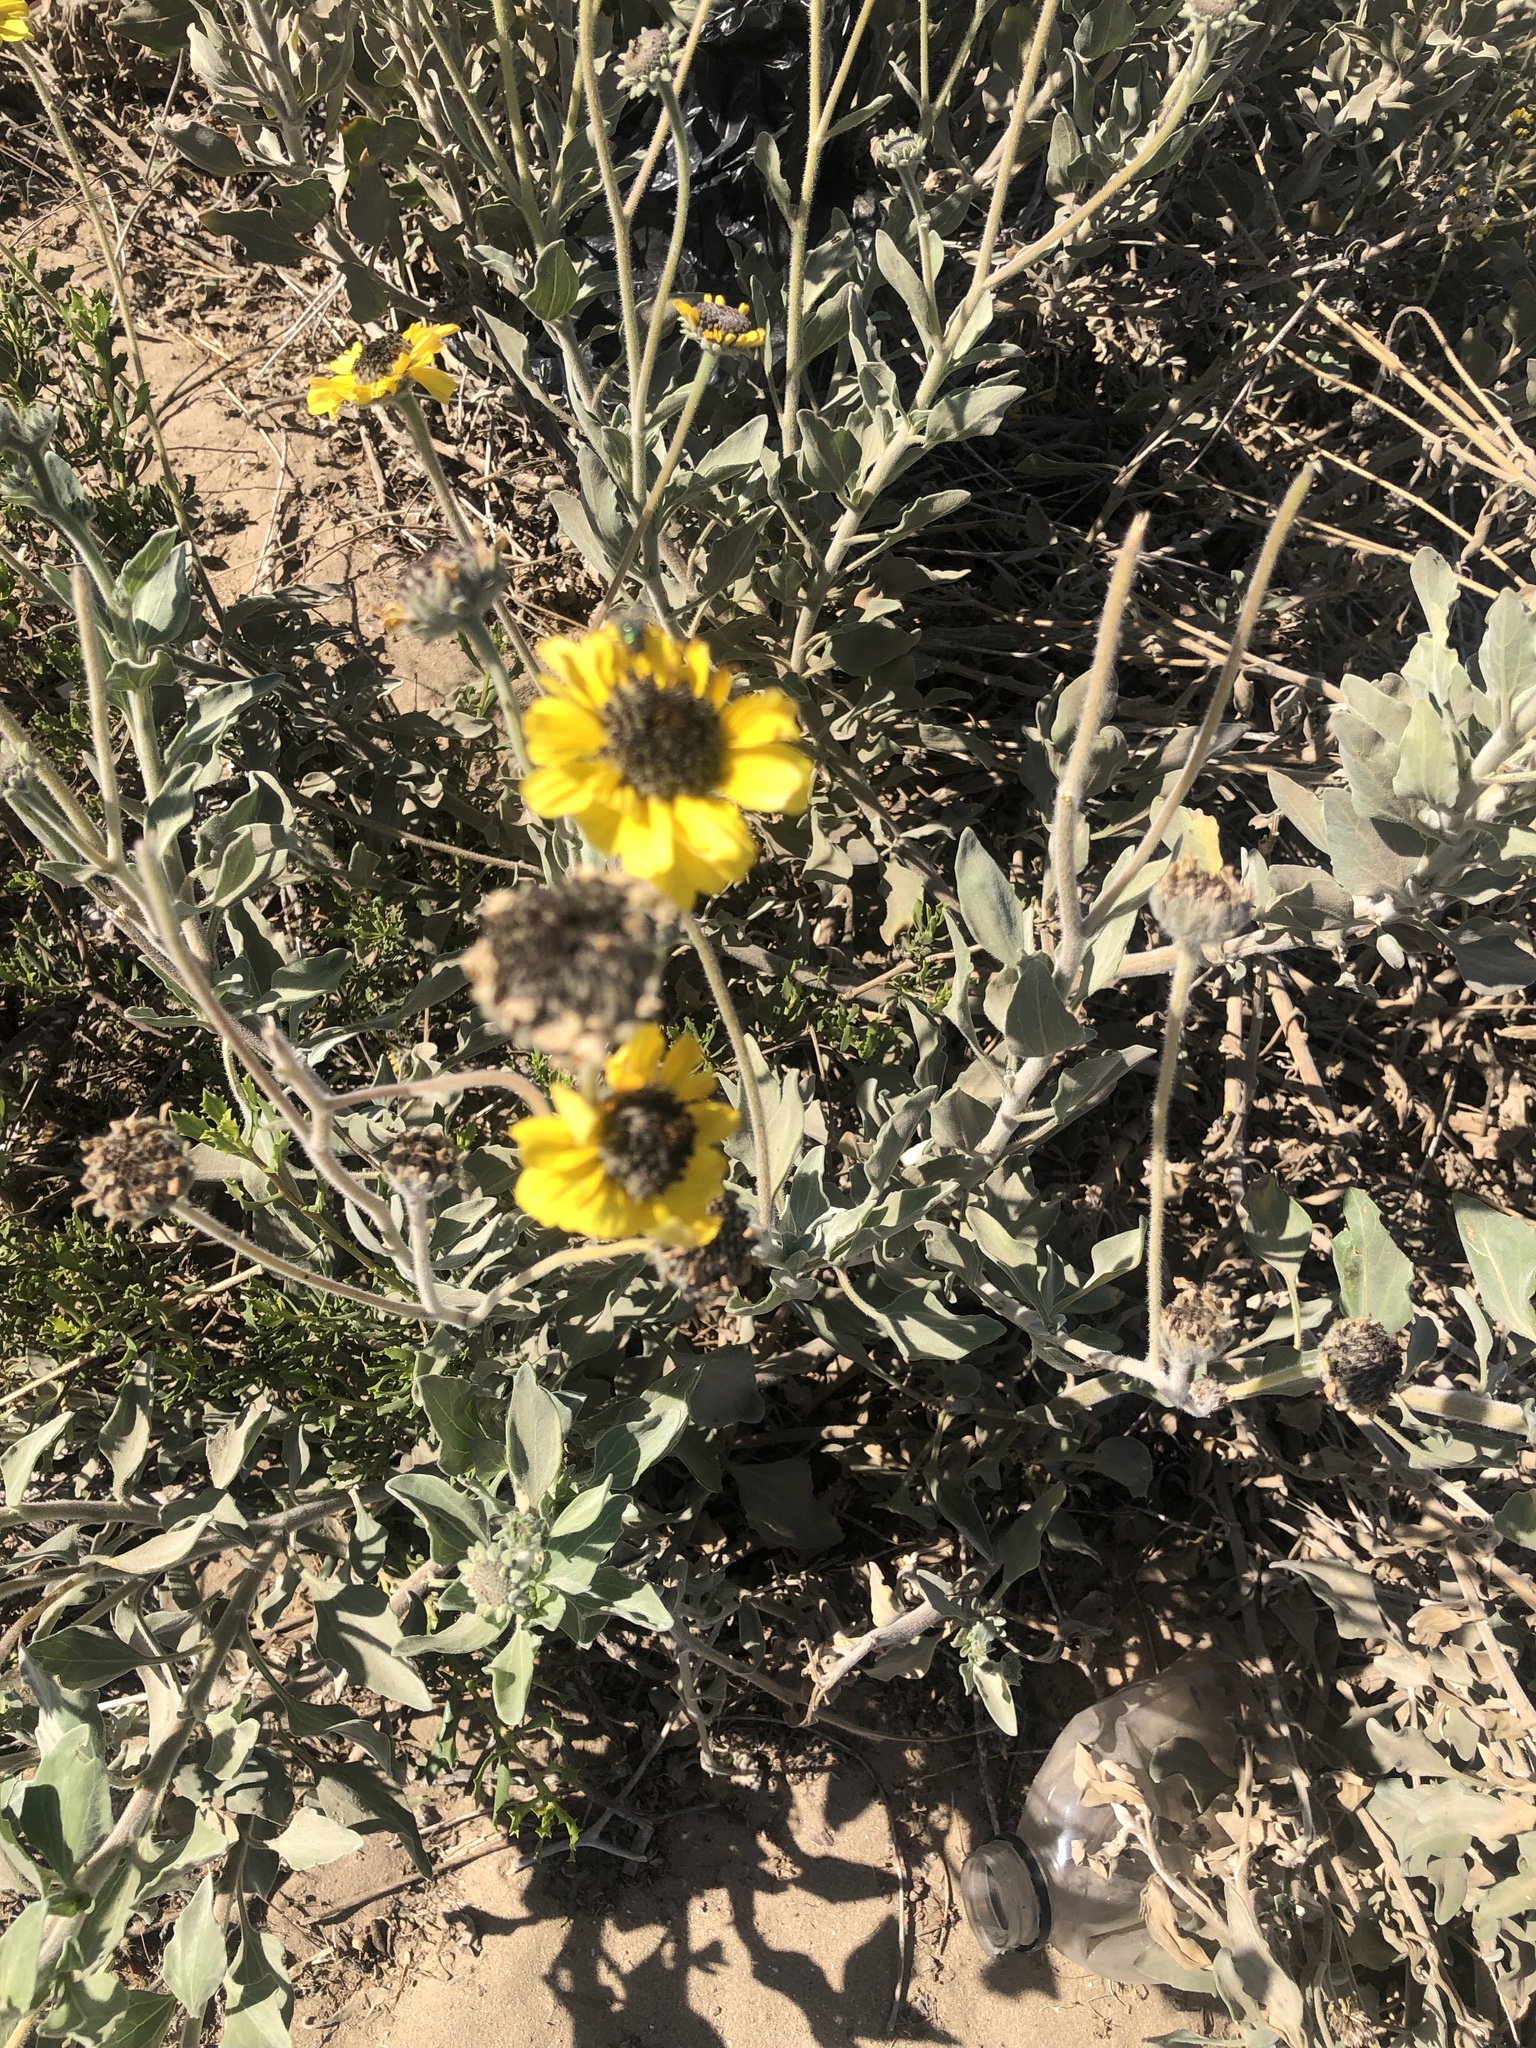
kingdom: Plantae
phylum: Tracheophyta
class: Magnoliopsida
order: Asterales
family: Asteraceae
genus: Encelia
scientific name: Encelia canescens
